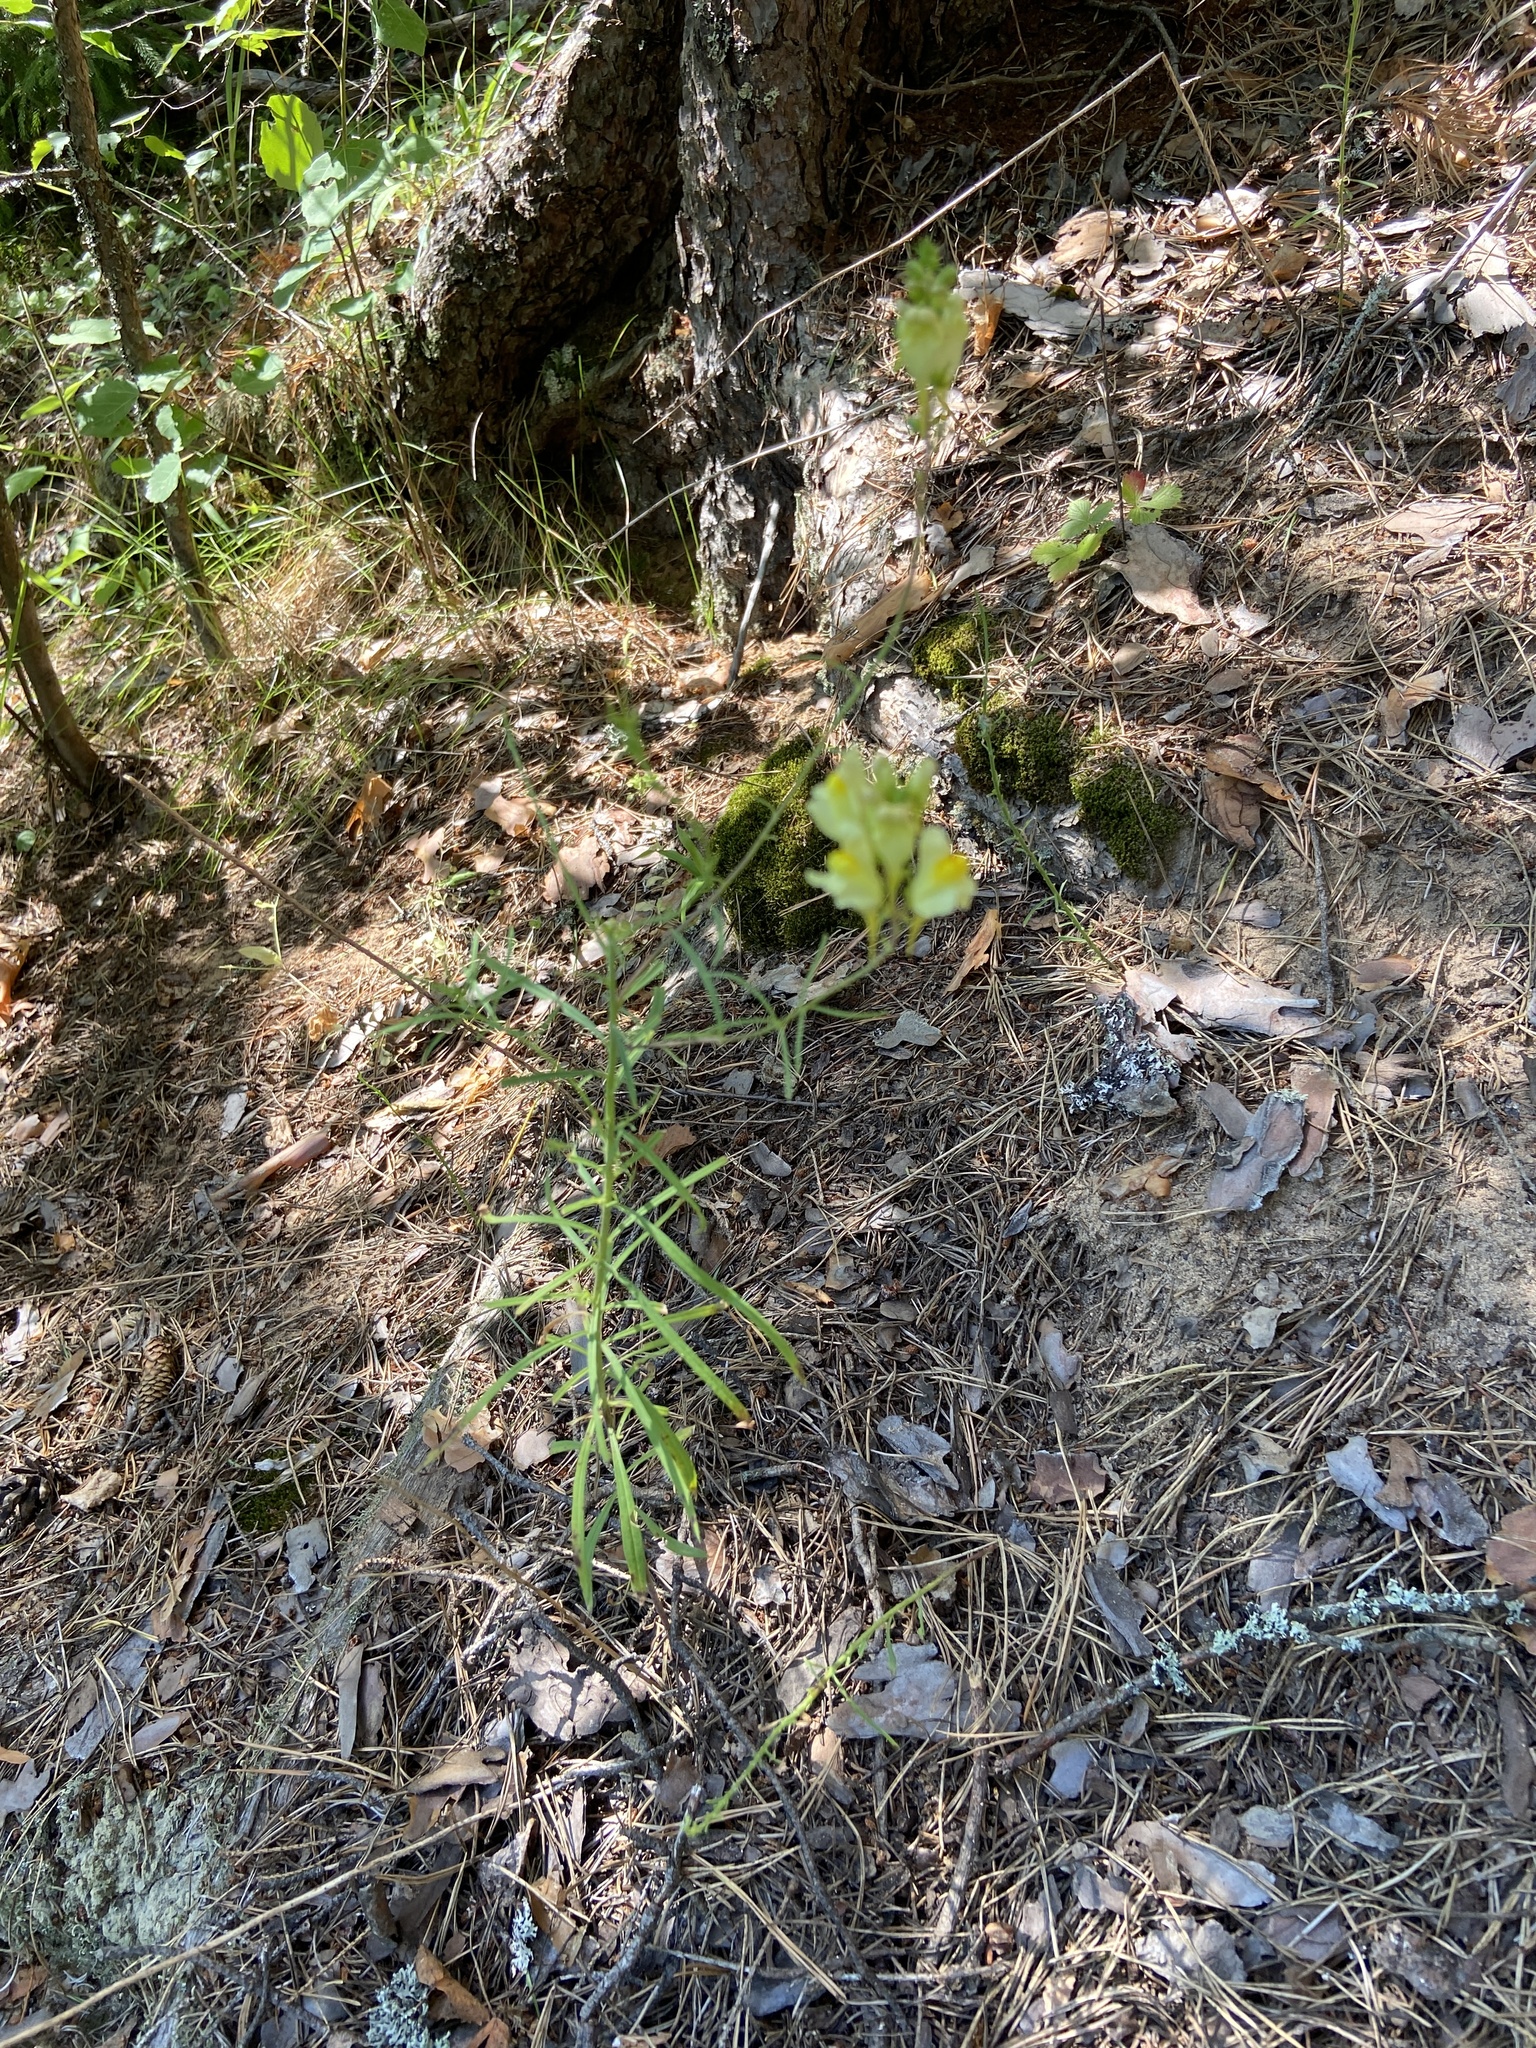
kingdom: Plantae
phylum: Tracheophyta
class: Magnoliopsida
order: Lamiales
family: Plantaginaceae
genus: Linaria
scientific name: Linaria vulgaris
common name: Butter and eggs
